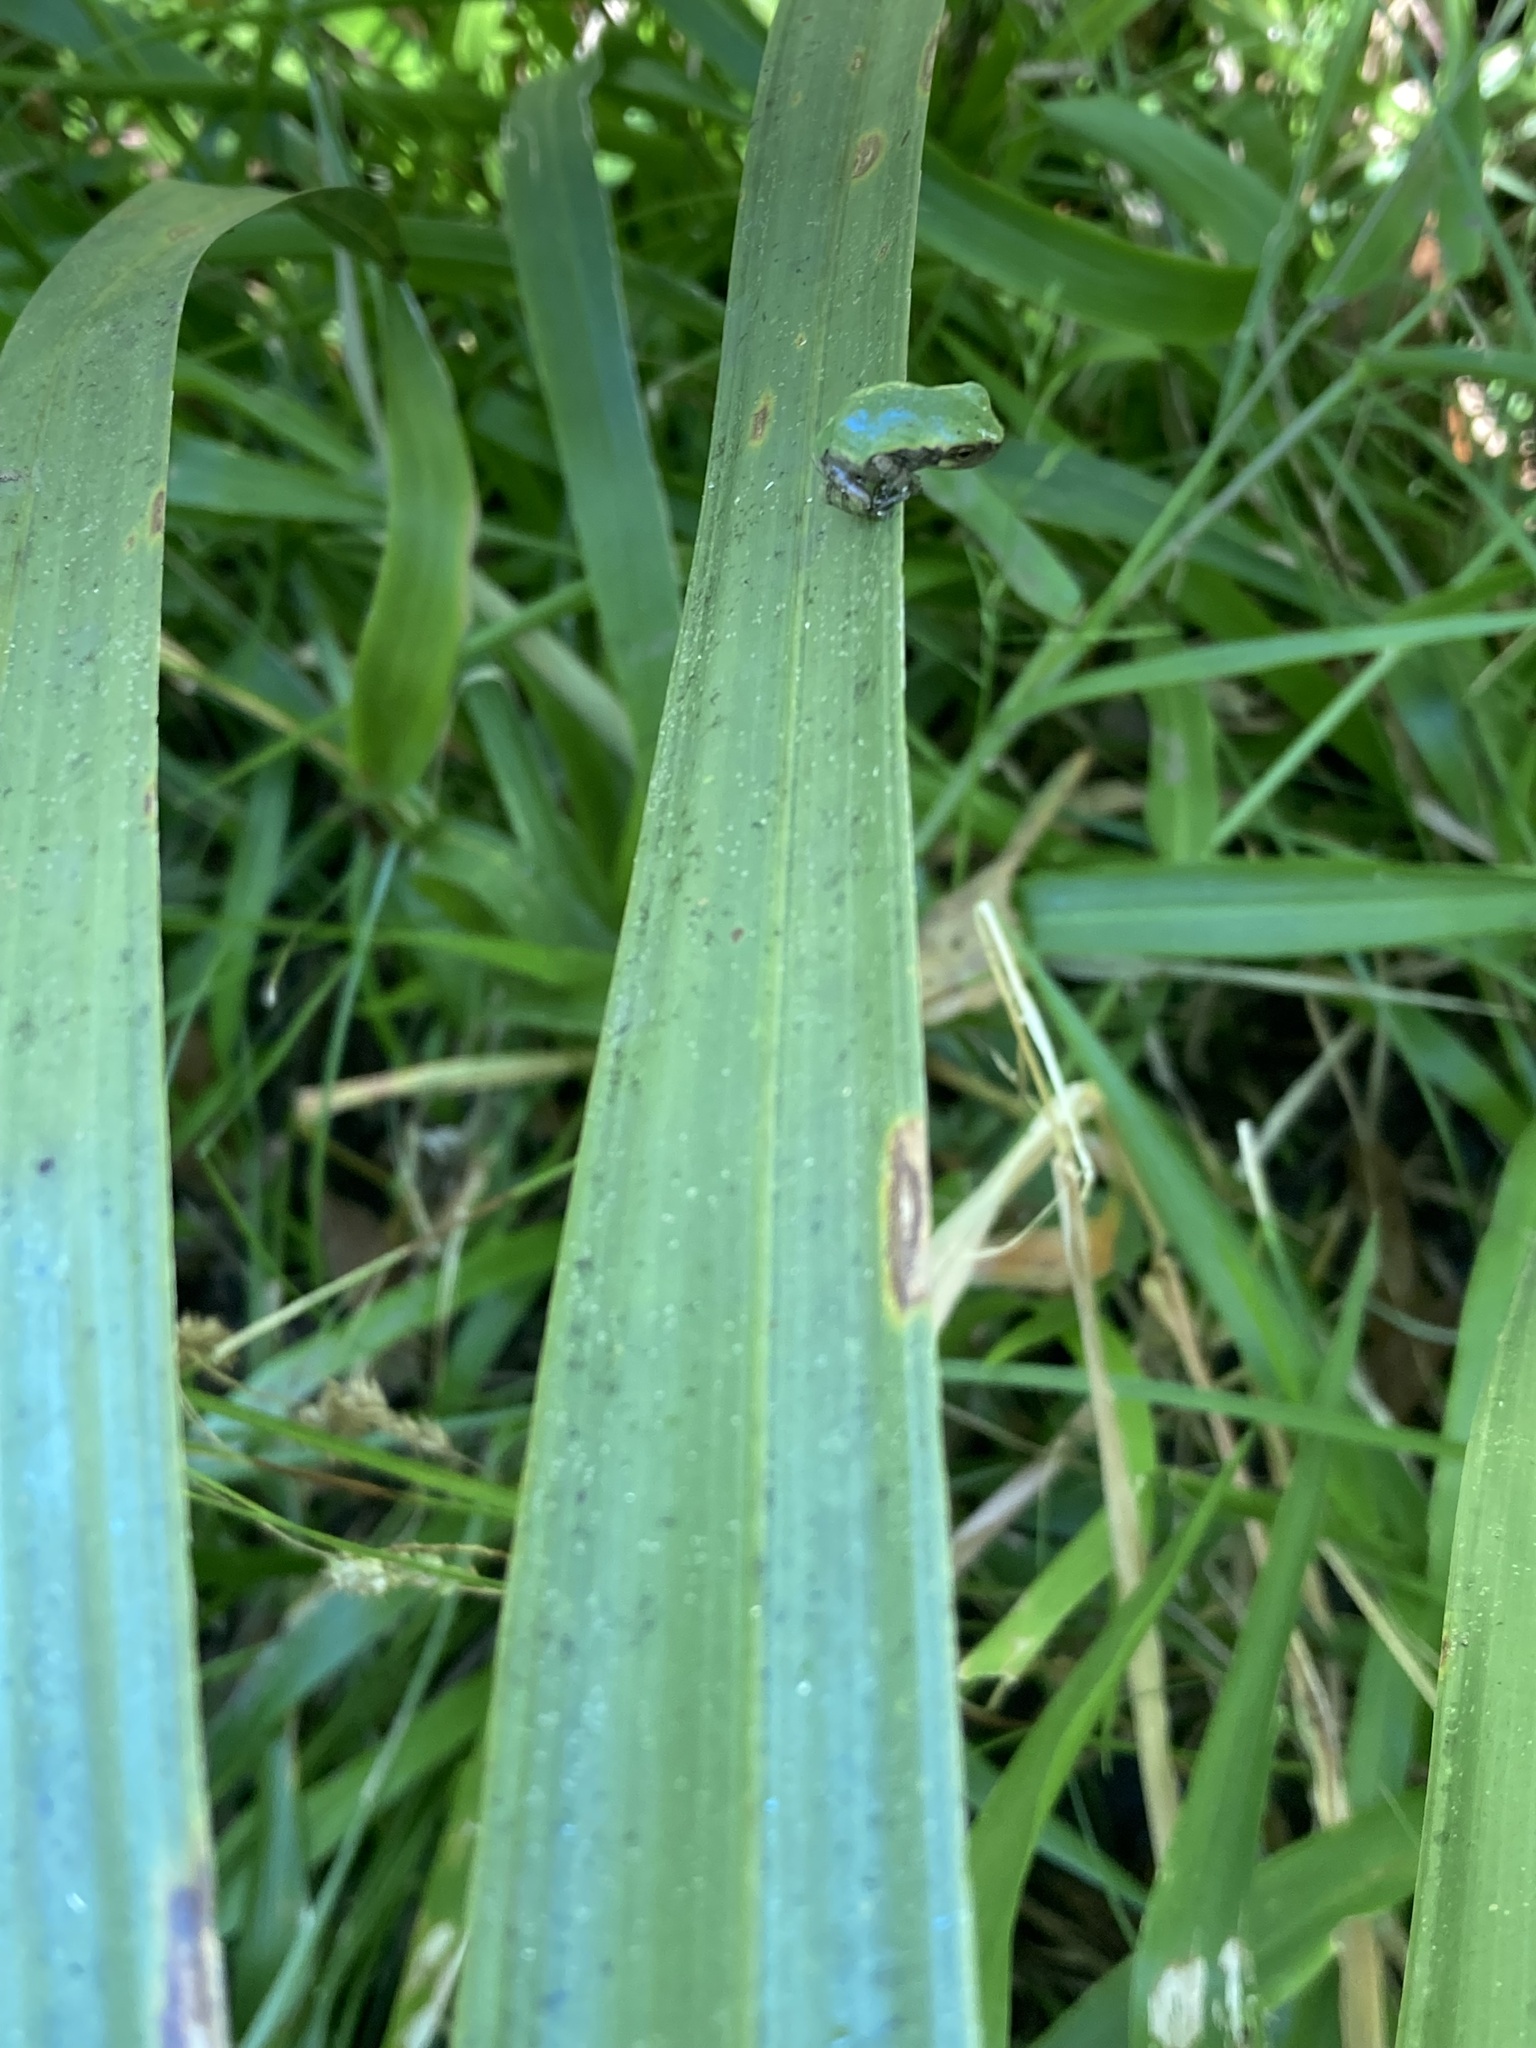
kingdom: Animalia
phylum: Chordata
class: Amphibia
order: Anura
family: Hylidae
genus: Dryophytes
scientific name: Dryophytes squirellus
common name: Squirrel treefrog
